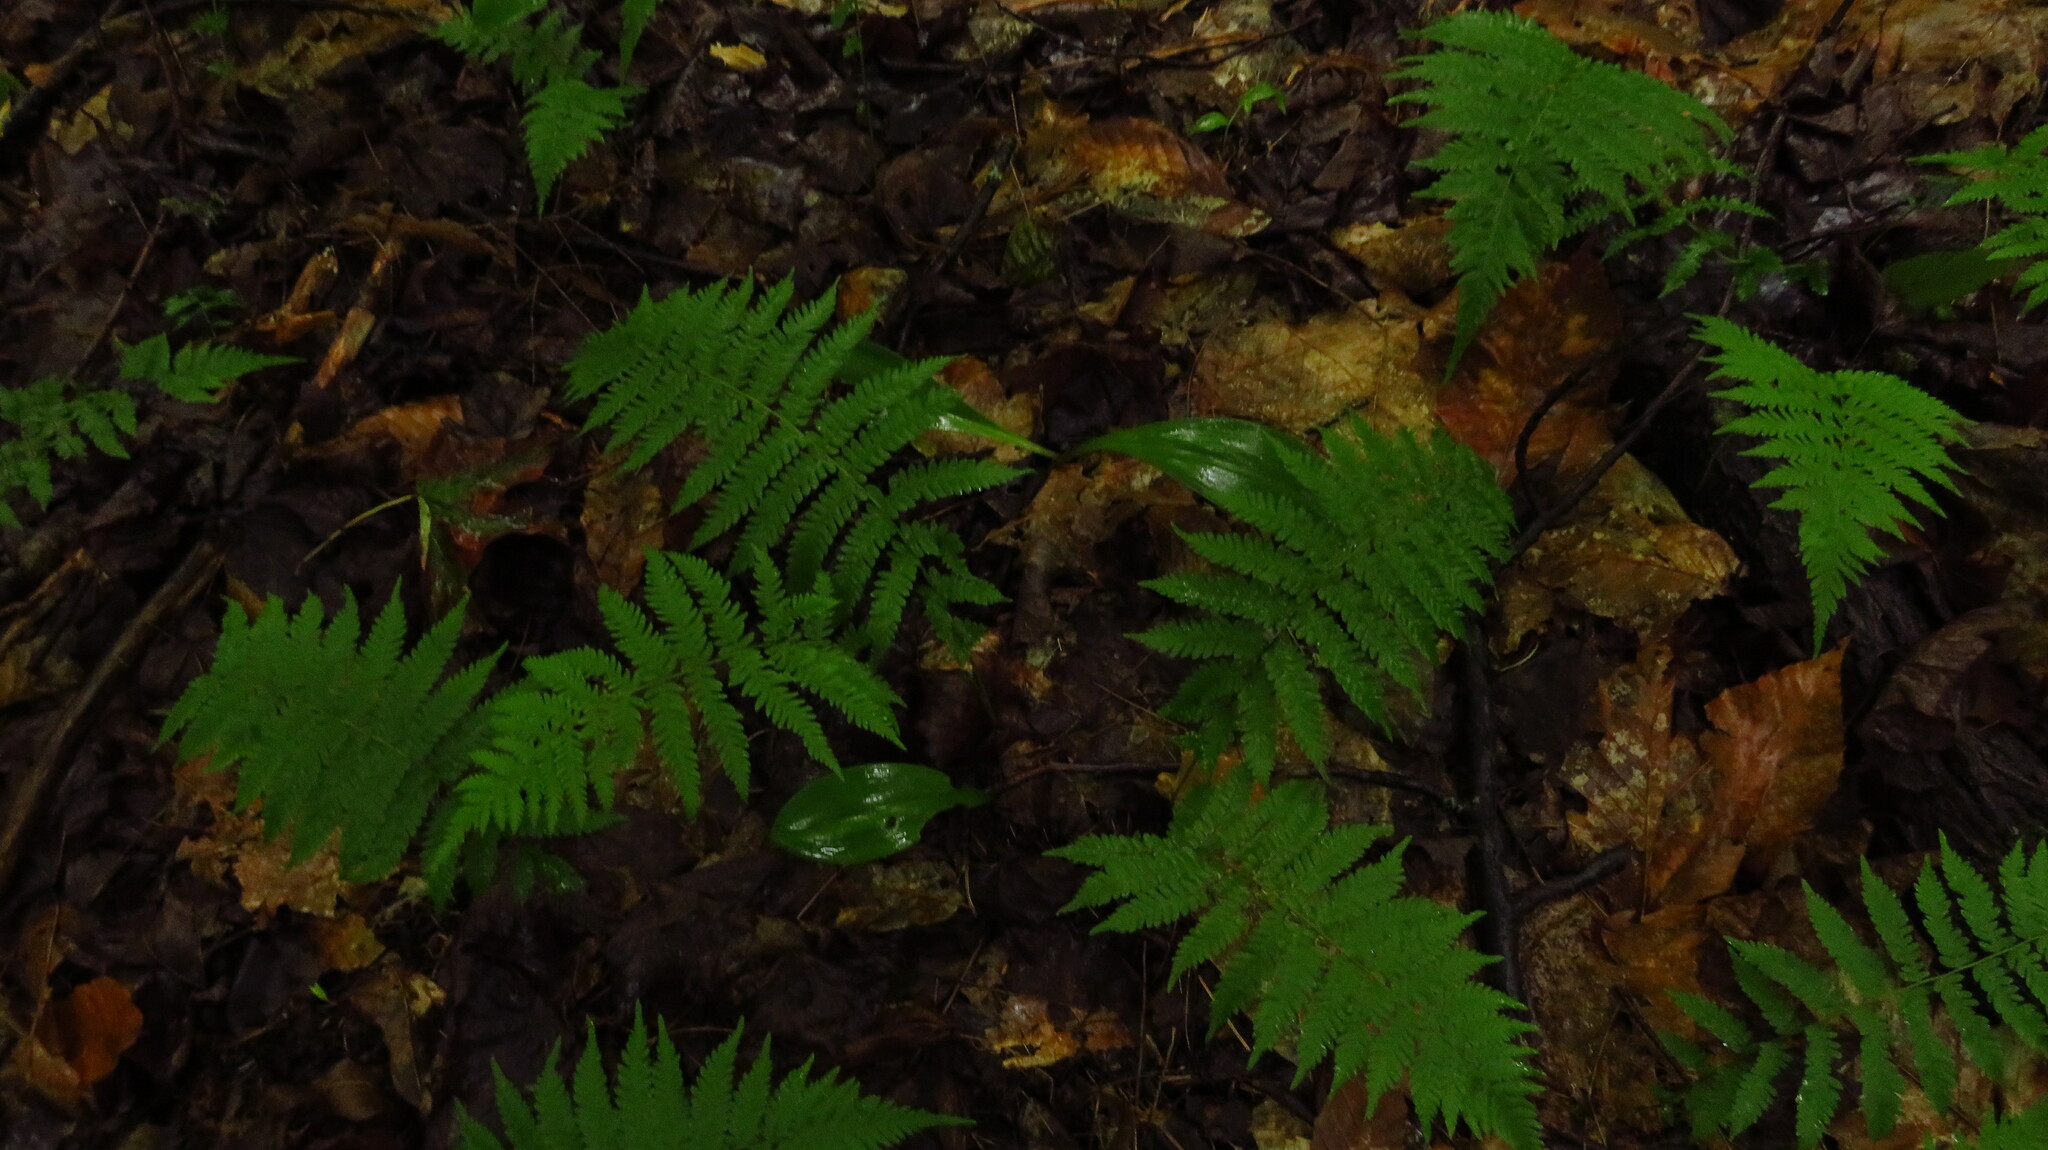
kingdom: Plantae
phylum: Tracheophyta
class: Polypodiopsida
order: Polypodiales
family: Thelypteridaceae
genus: Amauropelta
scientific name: Amauropelta noveboracensis
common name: New york fern
